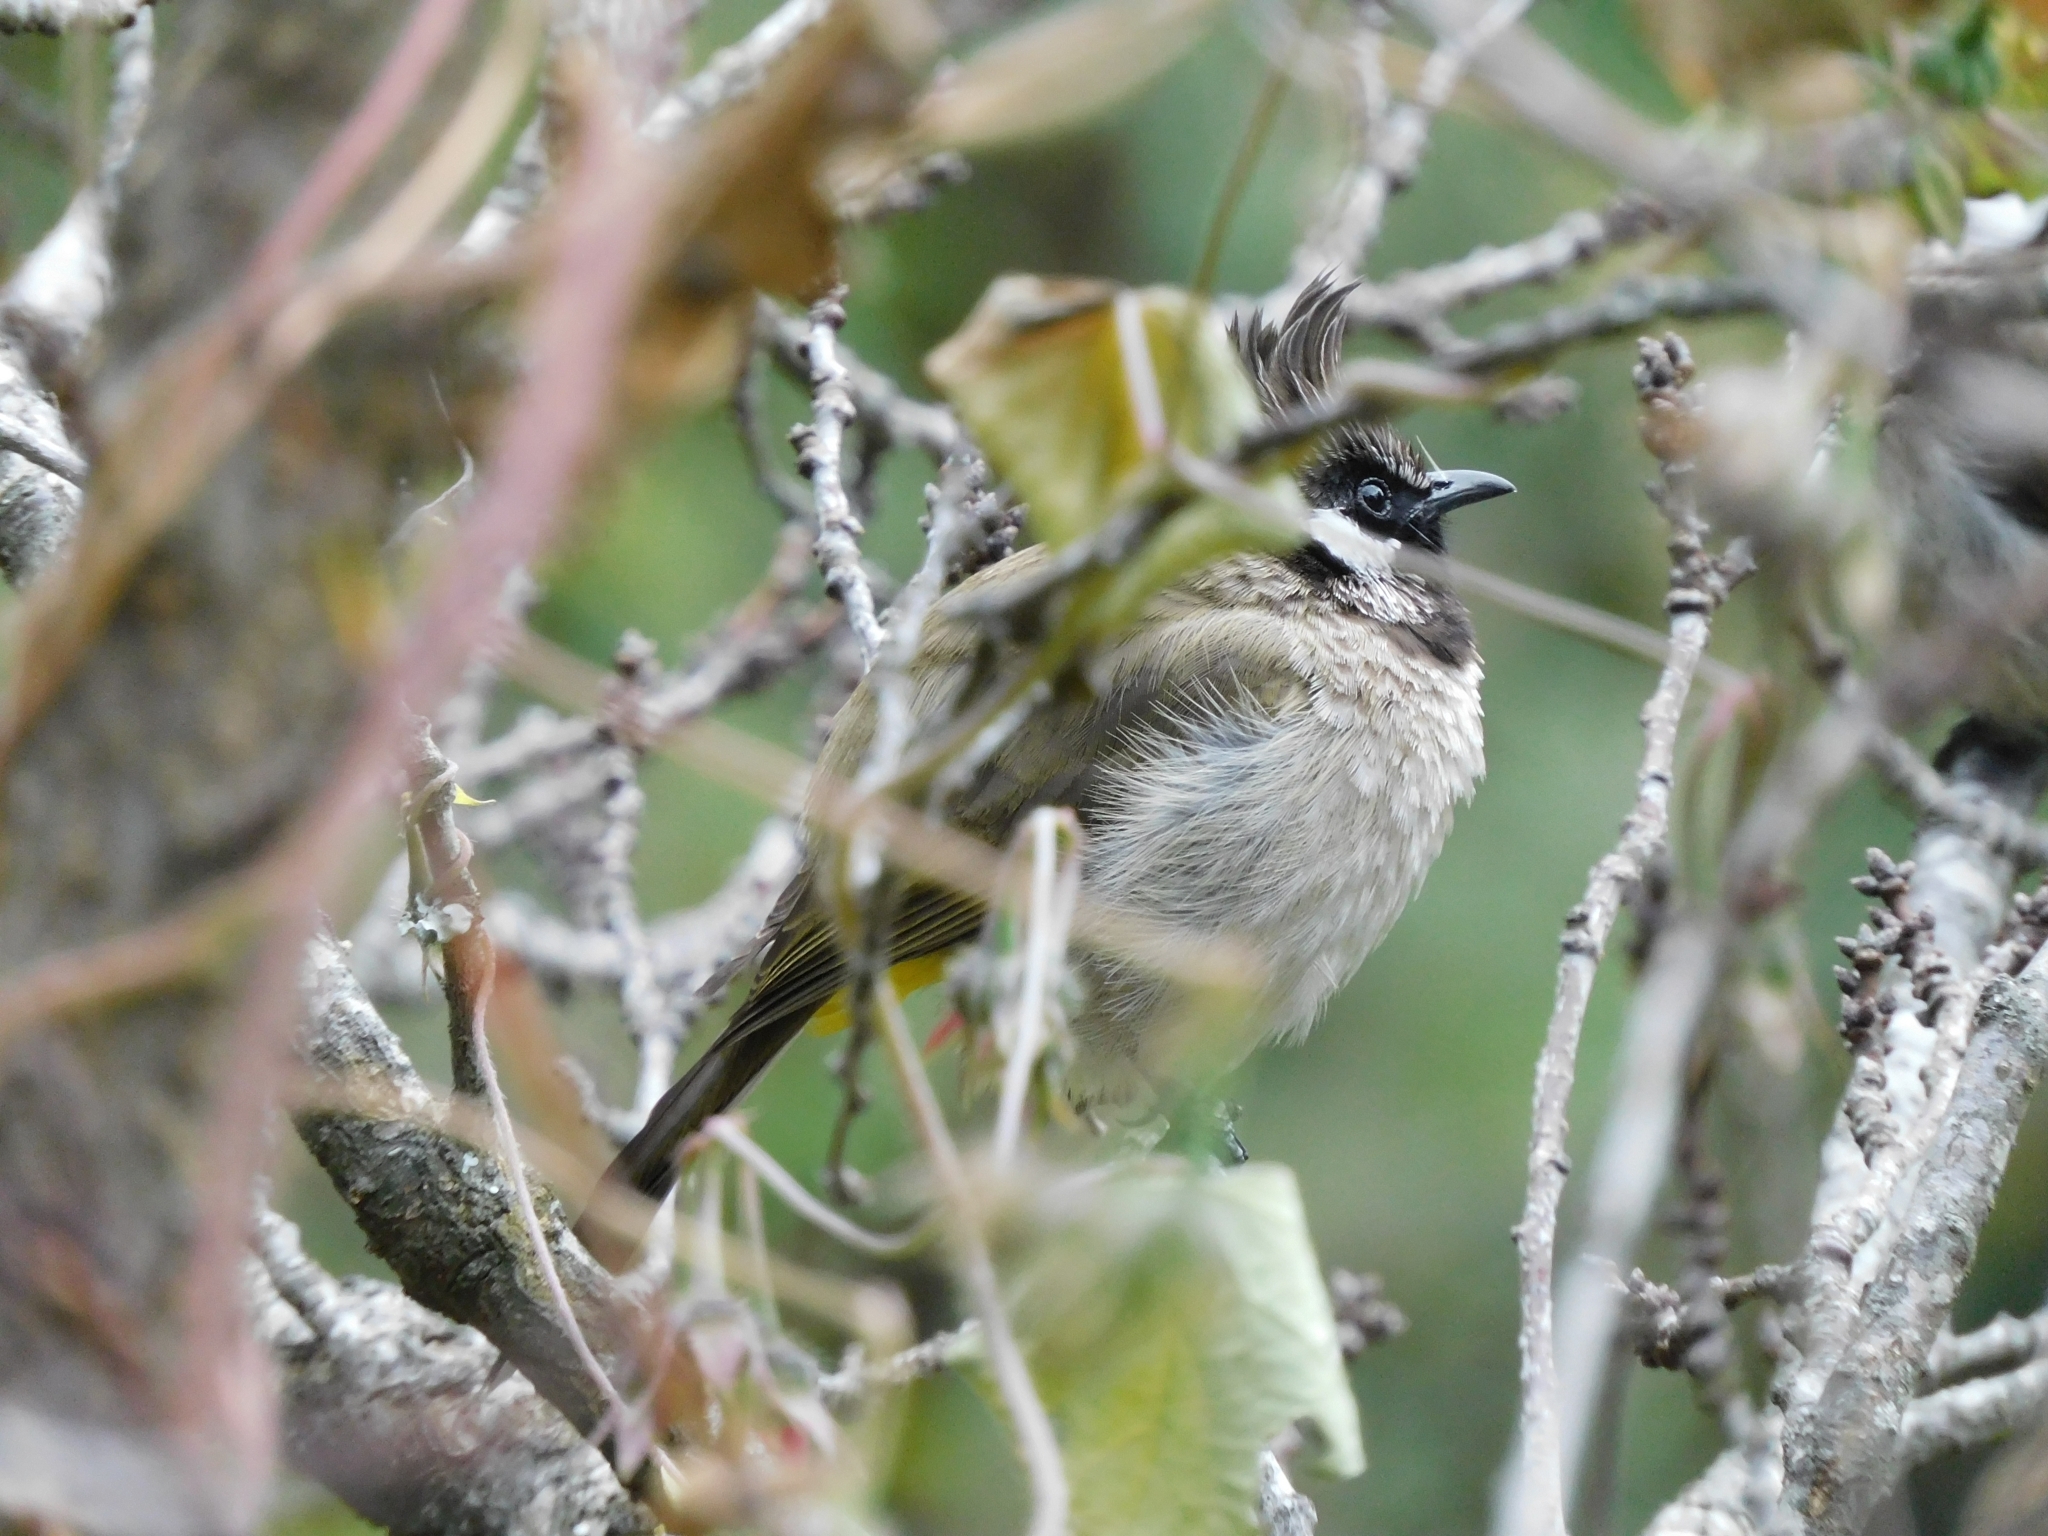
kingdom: Animalia
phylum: Chordata
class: Aves
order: Passeriformes
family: Pycnonotidae
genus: Pycnonotus
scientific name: Pycnonotus leucogenys
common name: Himalayan bulbul
